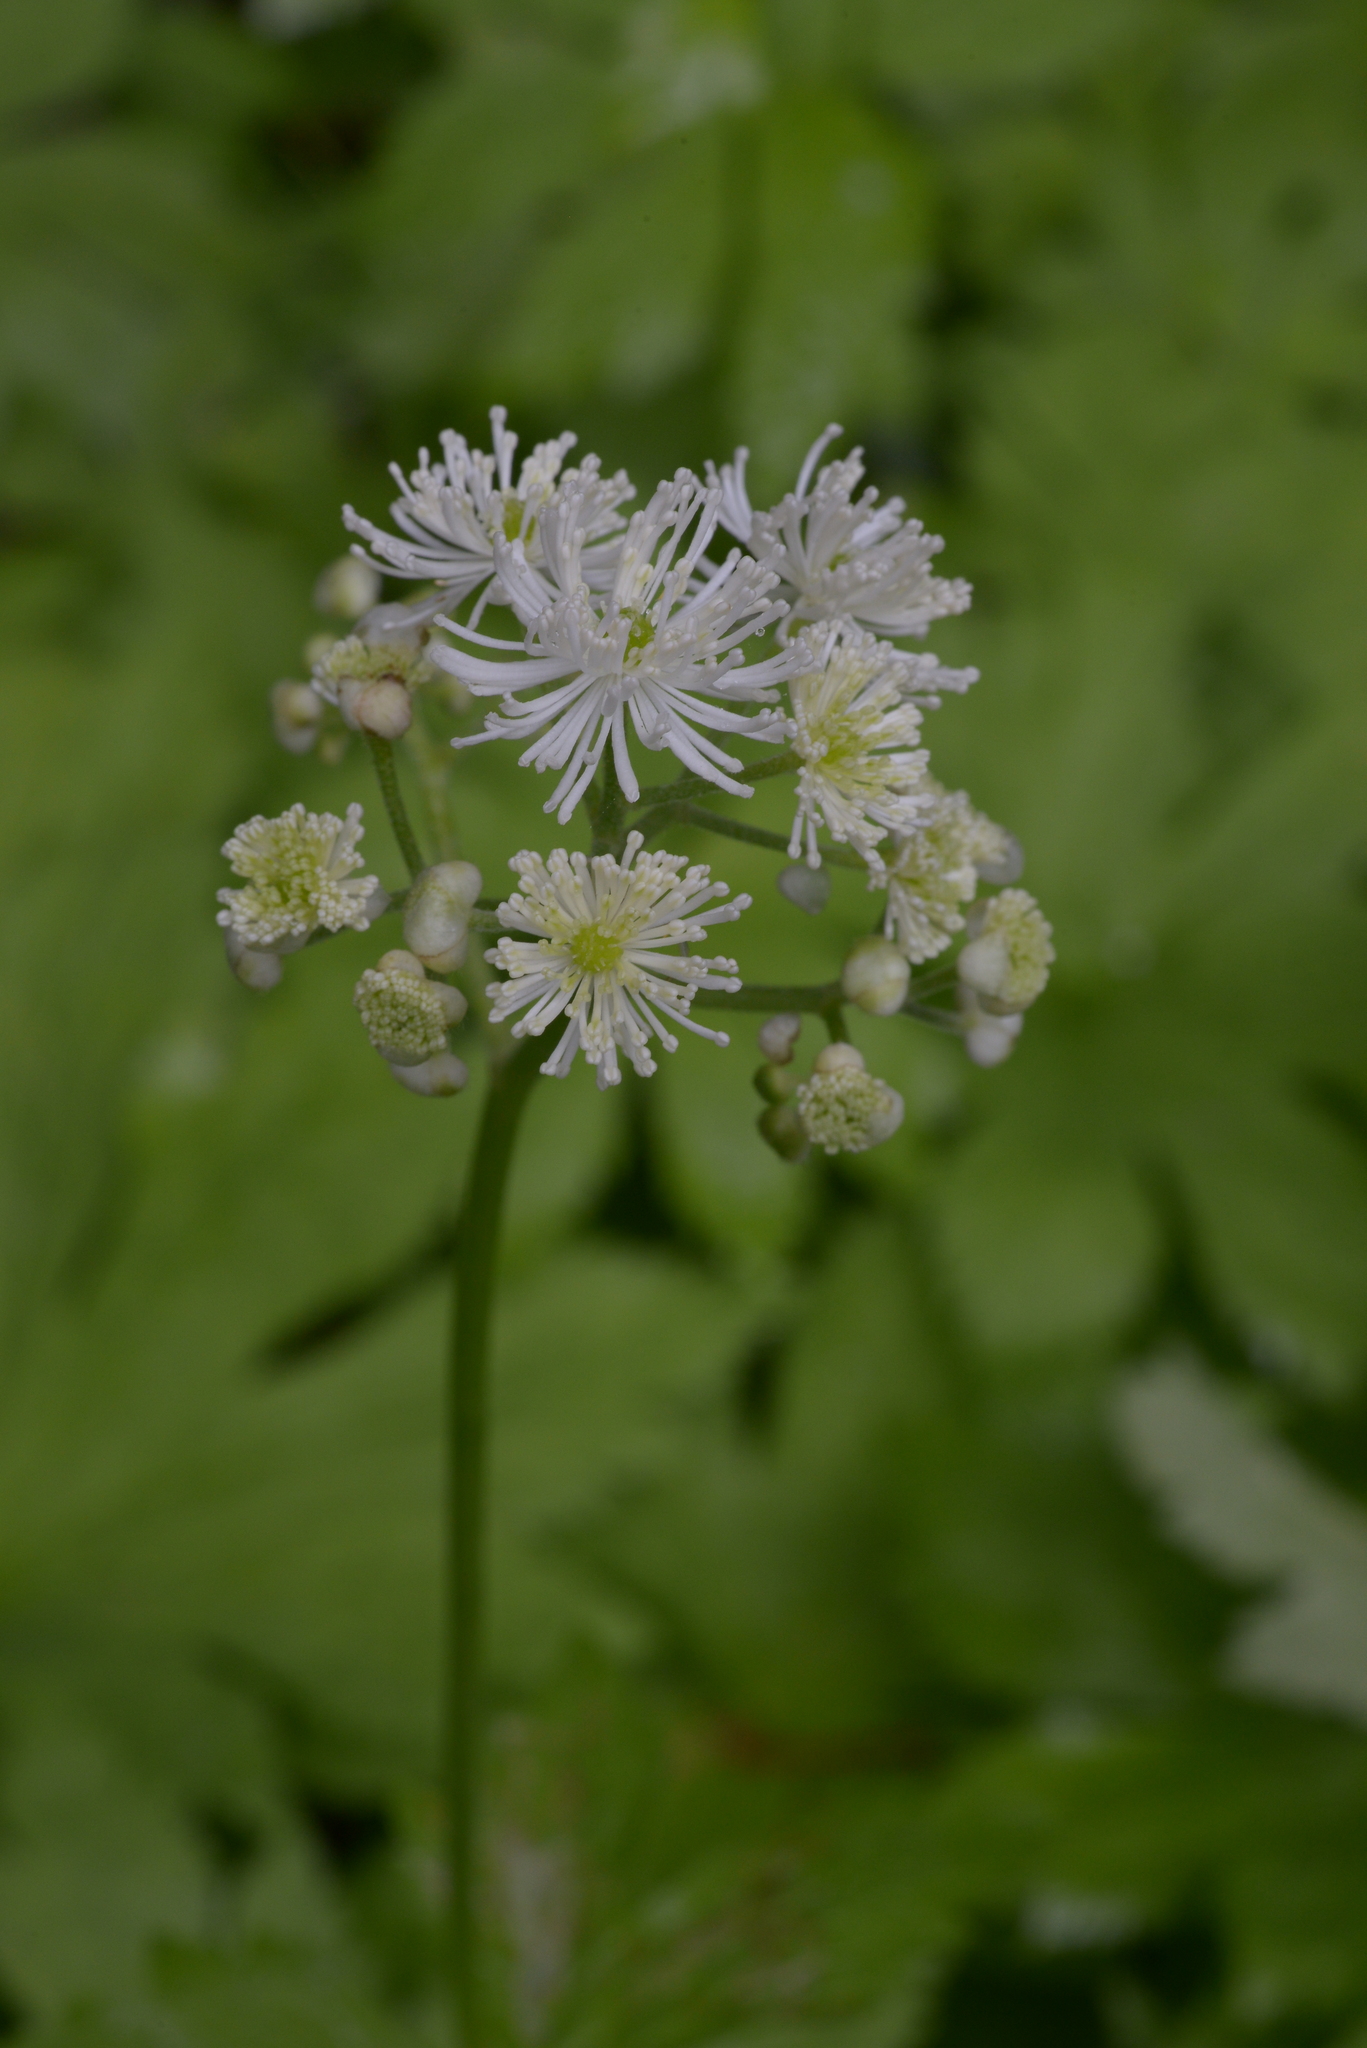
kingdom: Plantae
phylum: Tracheophyta
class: Magnoliopsida
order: Ranunculales
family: Ranunculaceae
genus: Trautvetteria
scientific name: Trautvetteria carolinensis
